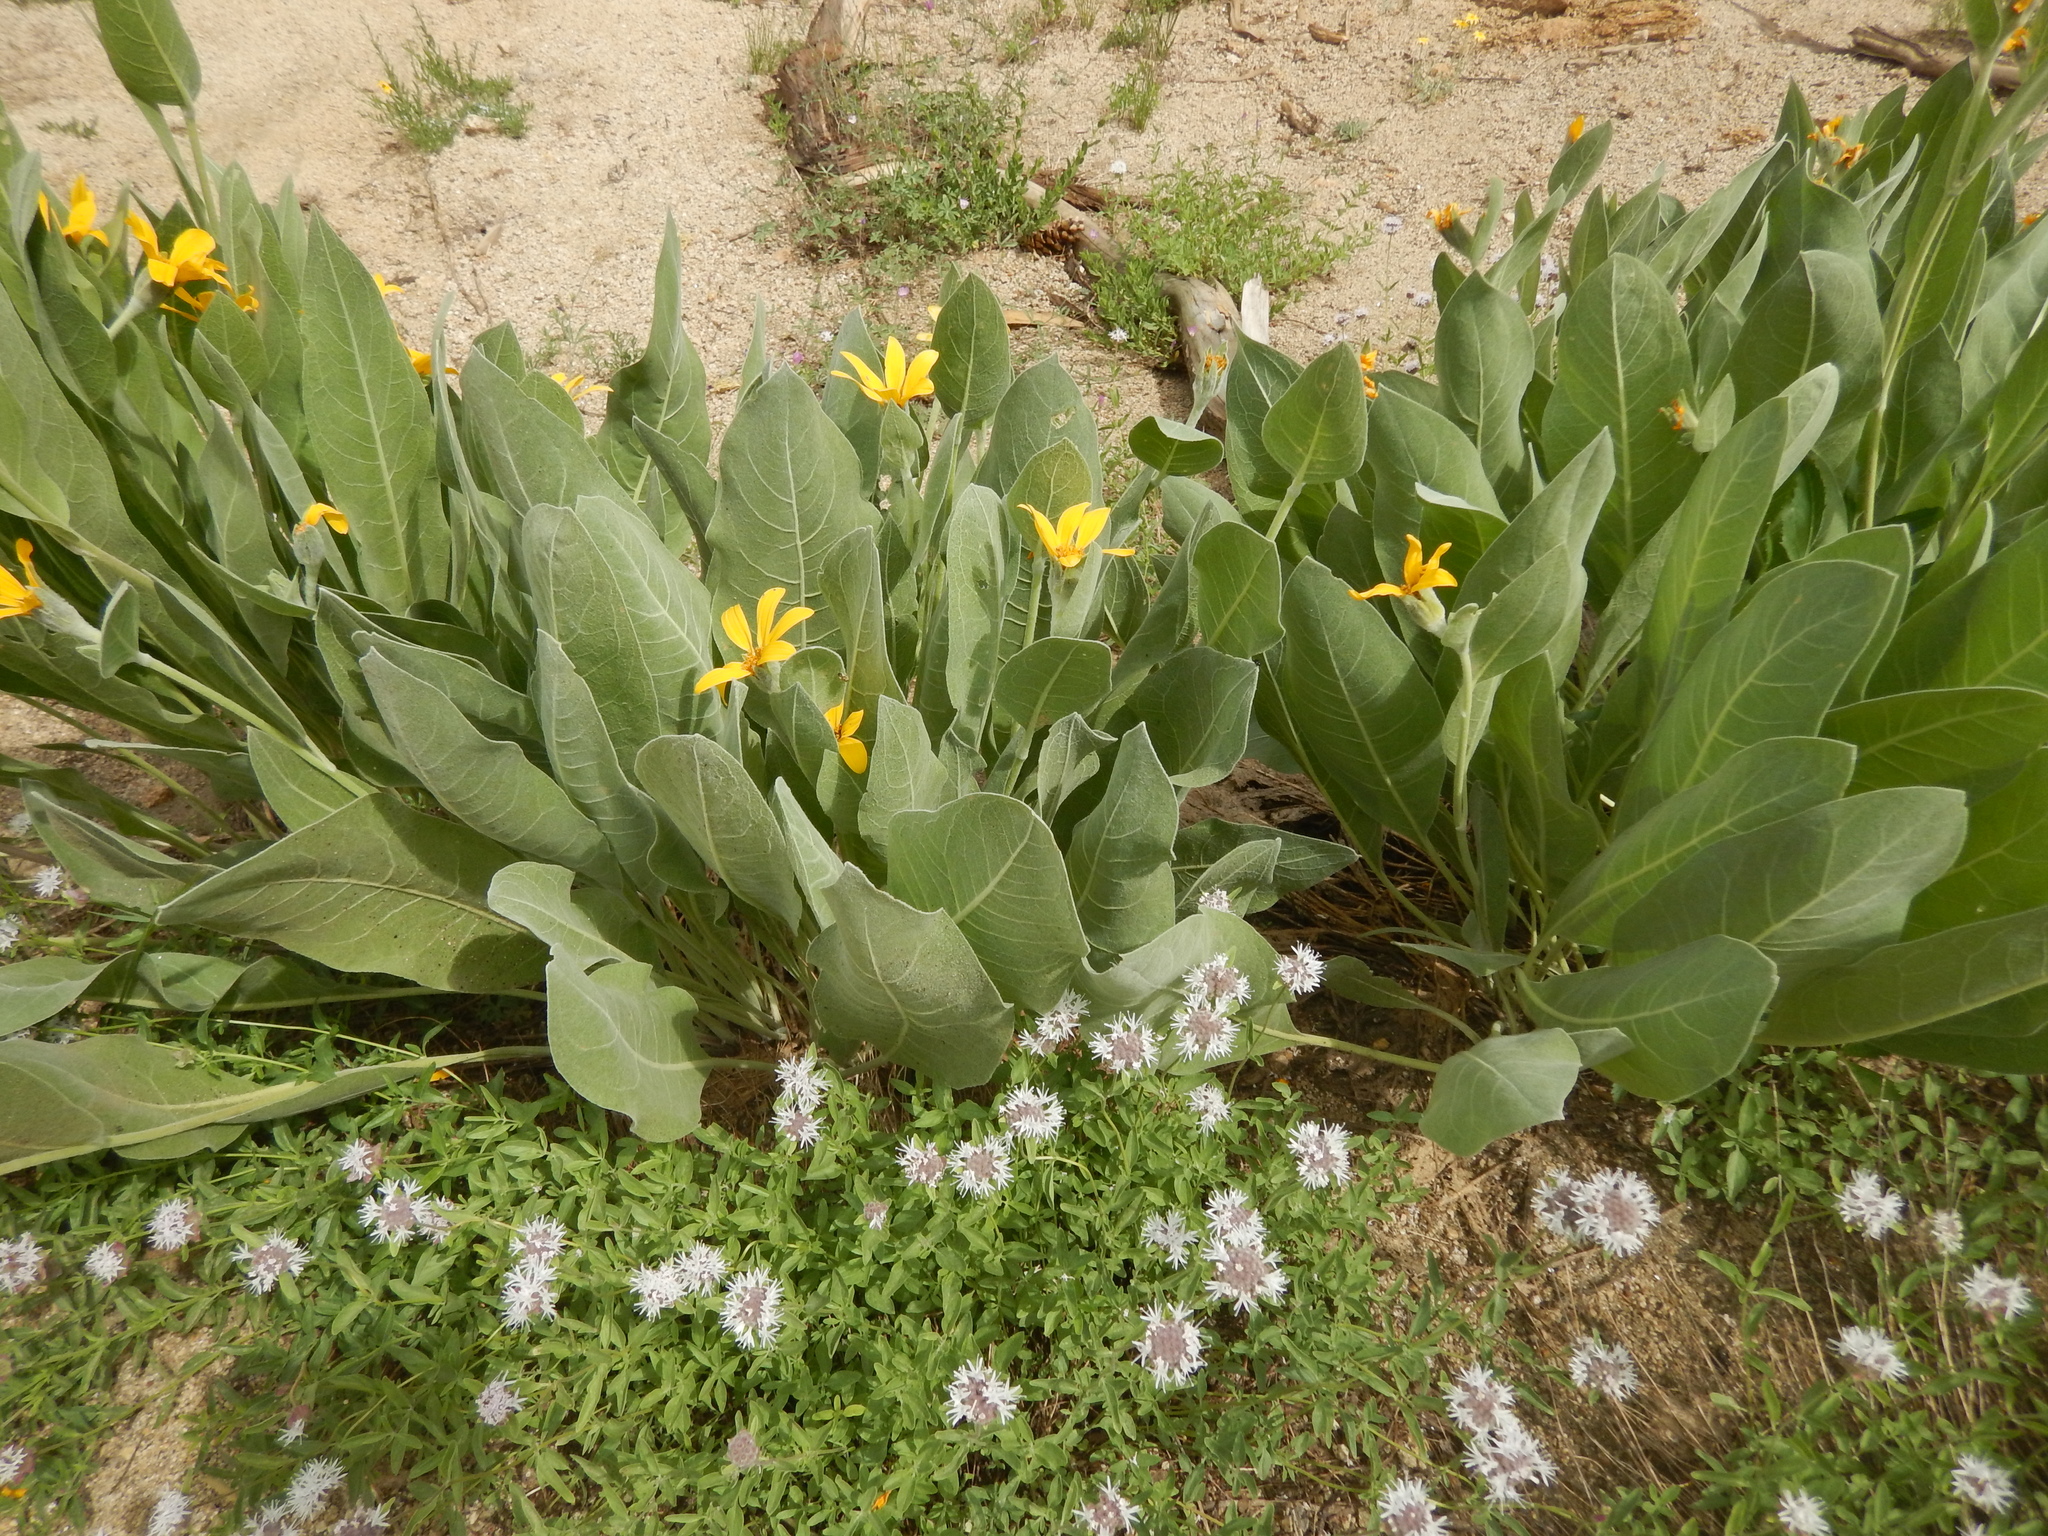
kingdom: Plantae
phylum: Tracheophyta
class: Magnoliopsida
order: Asterales
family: Asteraceae
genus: Wyethia
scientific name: Wyethia mollis
